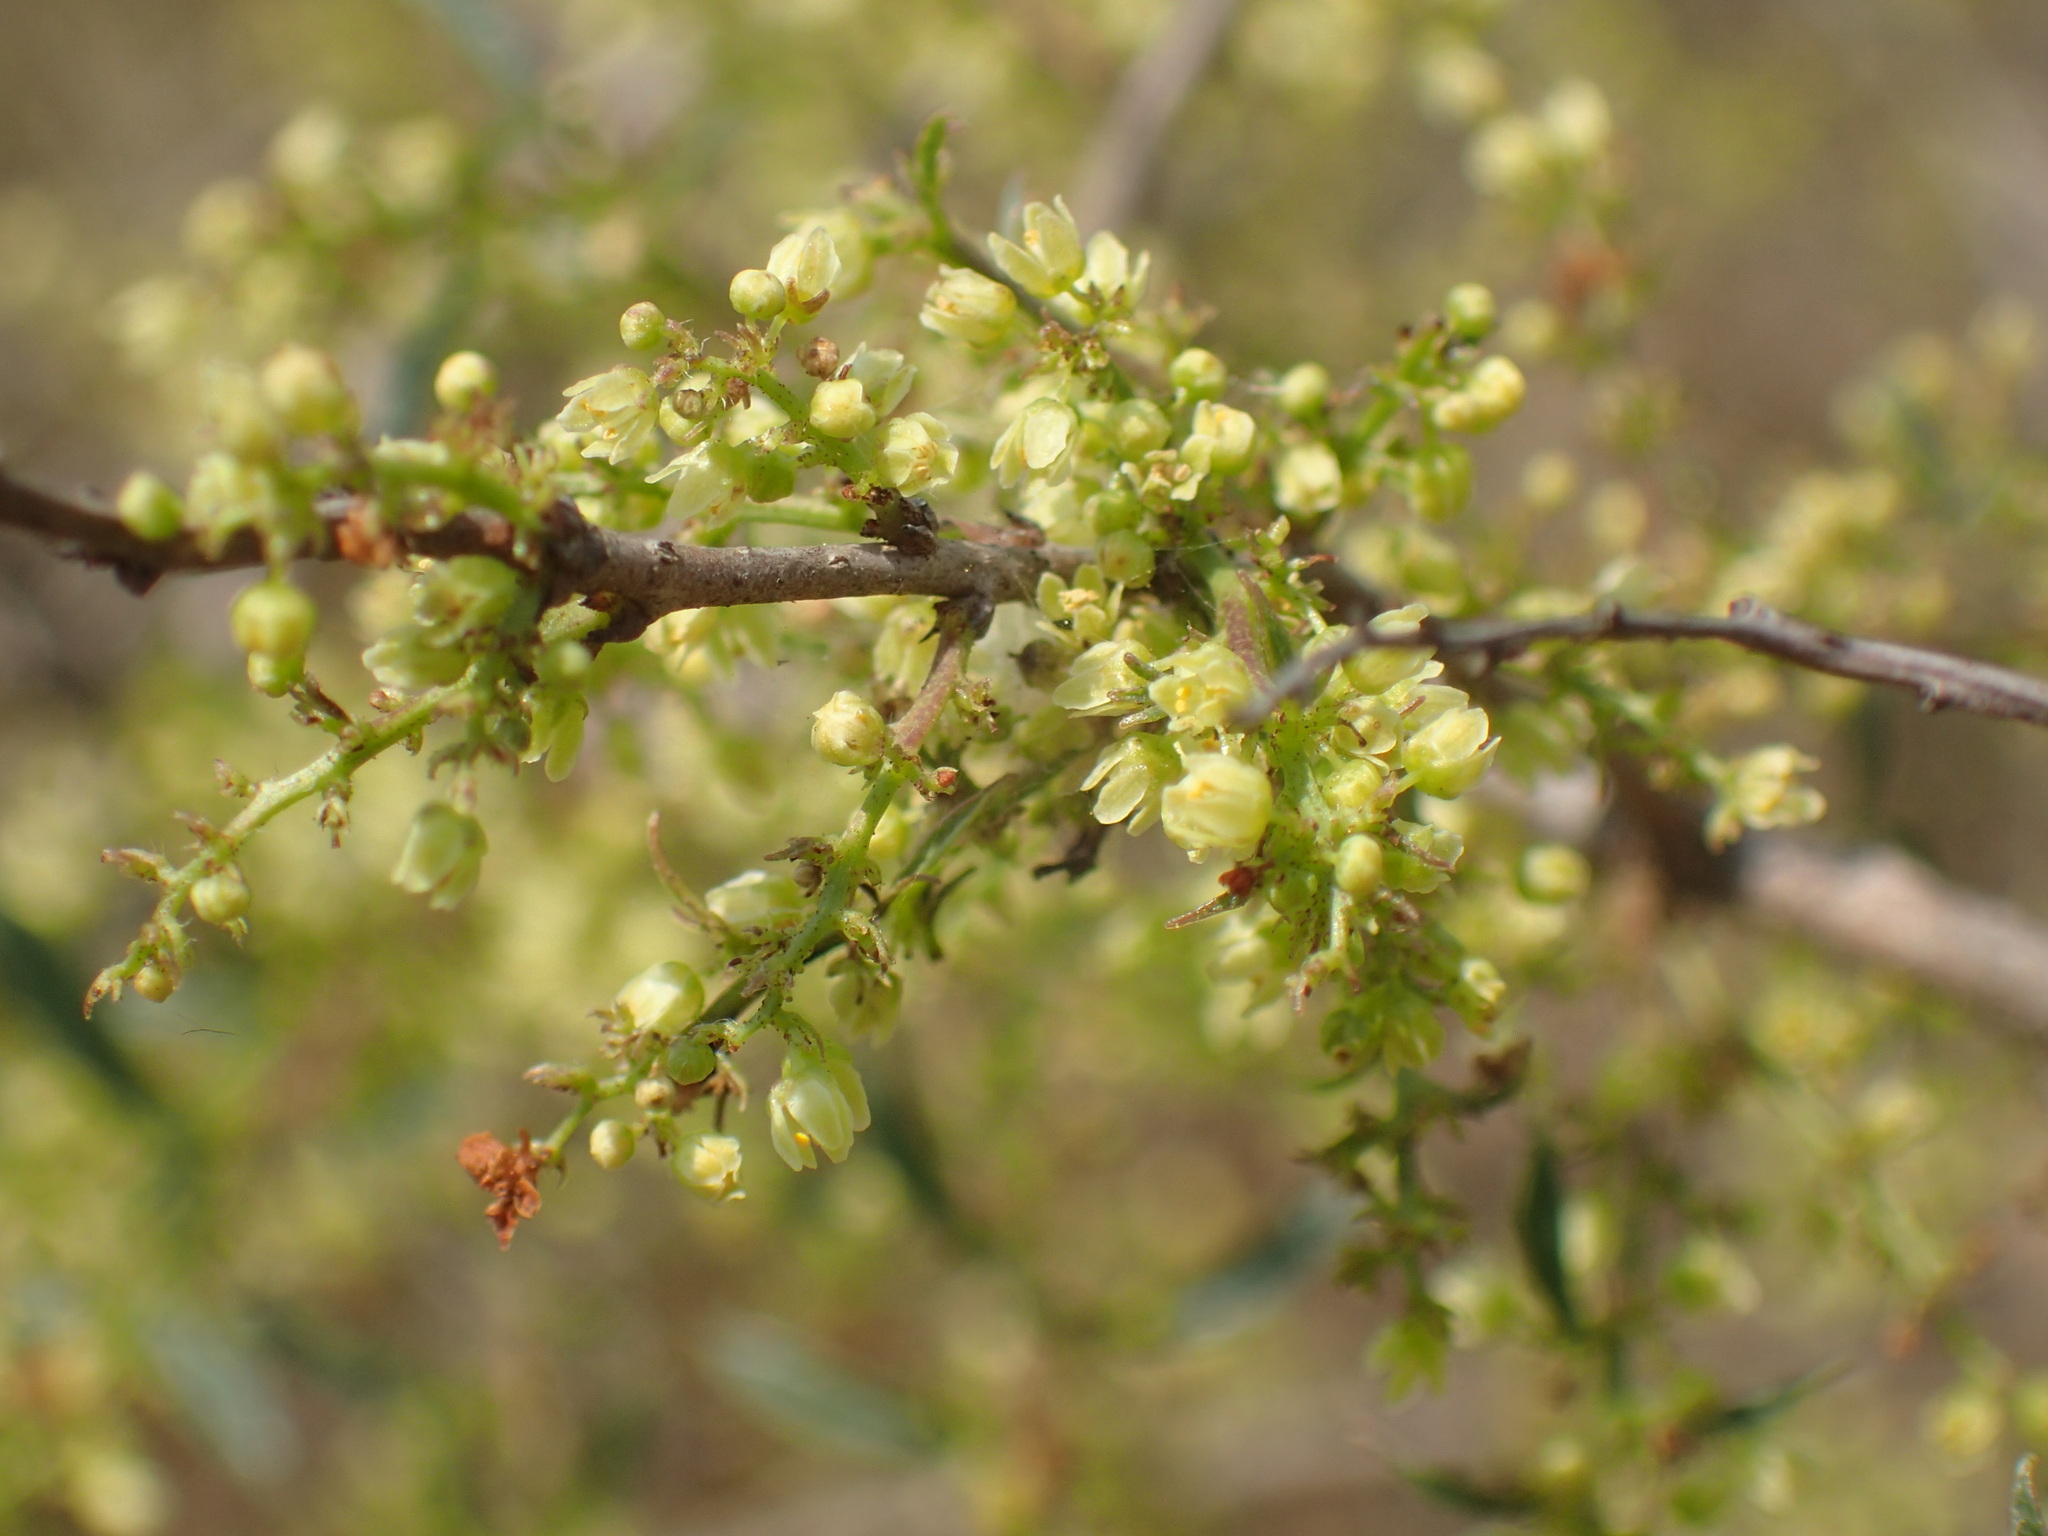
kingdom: Plantae
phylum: Tracheophyta
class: Magnoliopsida
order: Sapindales
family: Anacardiaceae
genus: Searsia
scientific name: Searsia grandidens
